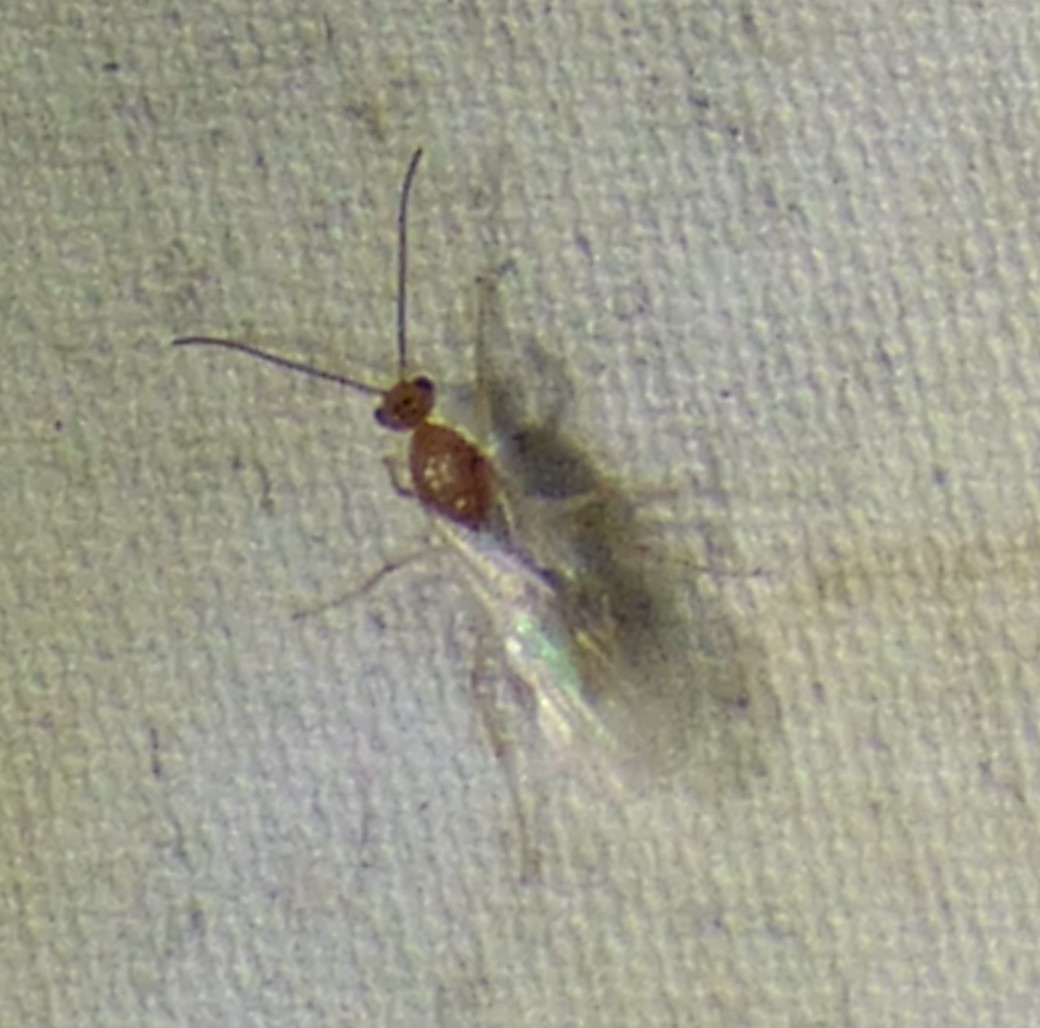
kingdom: Animalia
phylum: Arthropoda
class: Insecta
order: Hymenoptera
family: Formicidae
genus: Pachycondyla
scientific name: Pachycondyla chinensis
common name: Asian needle ant
